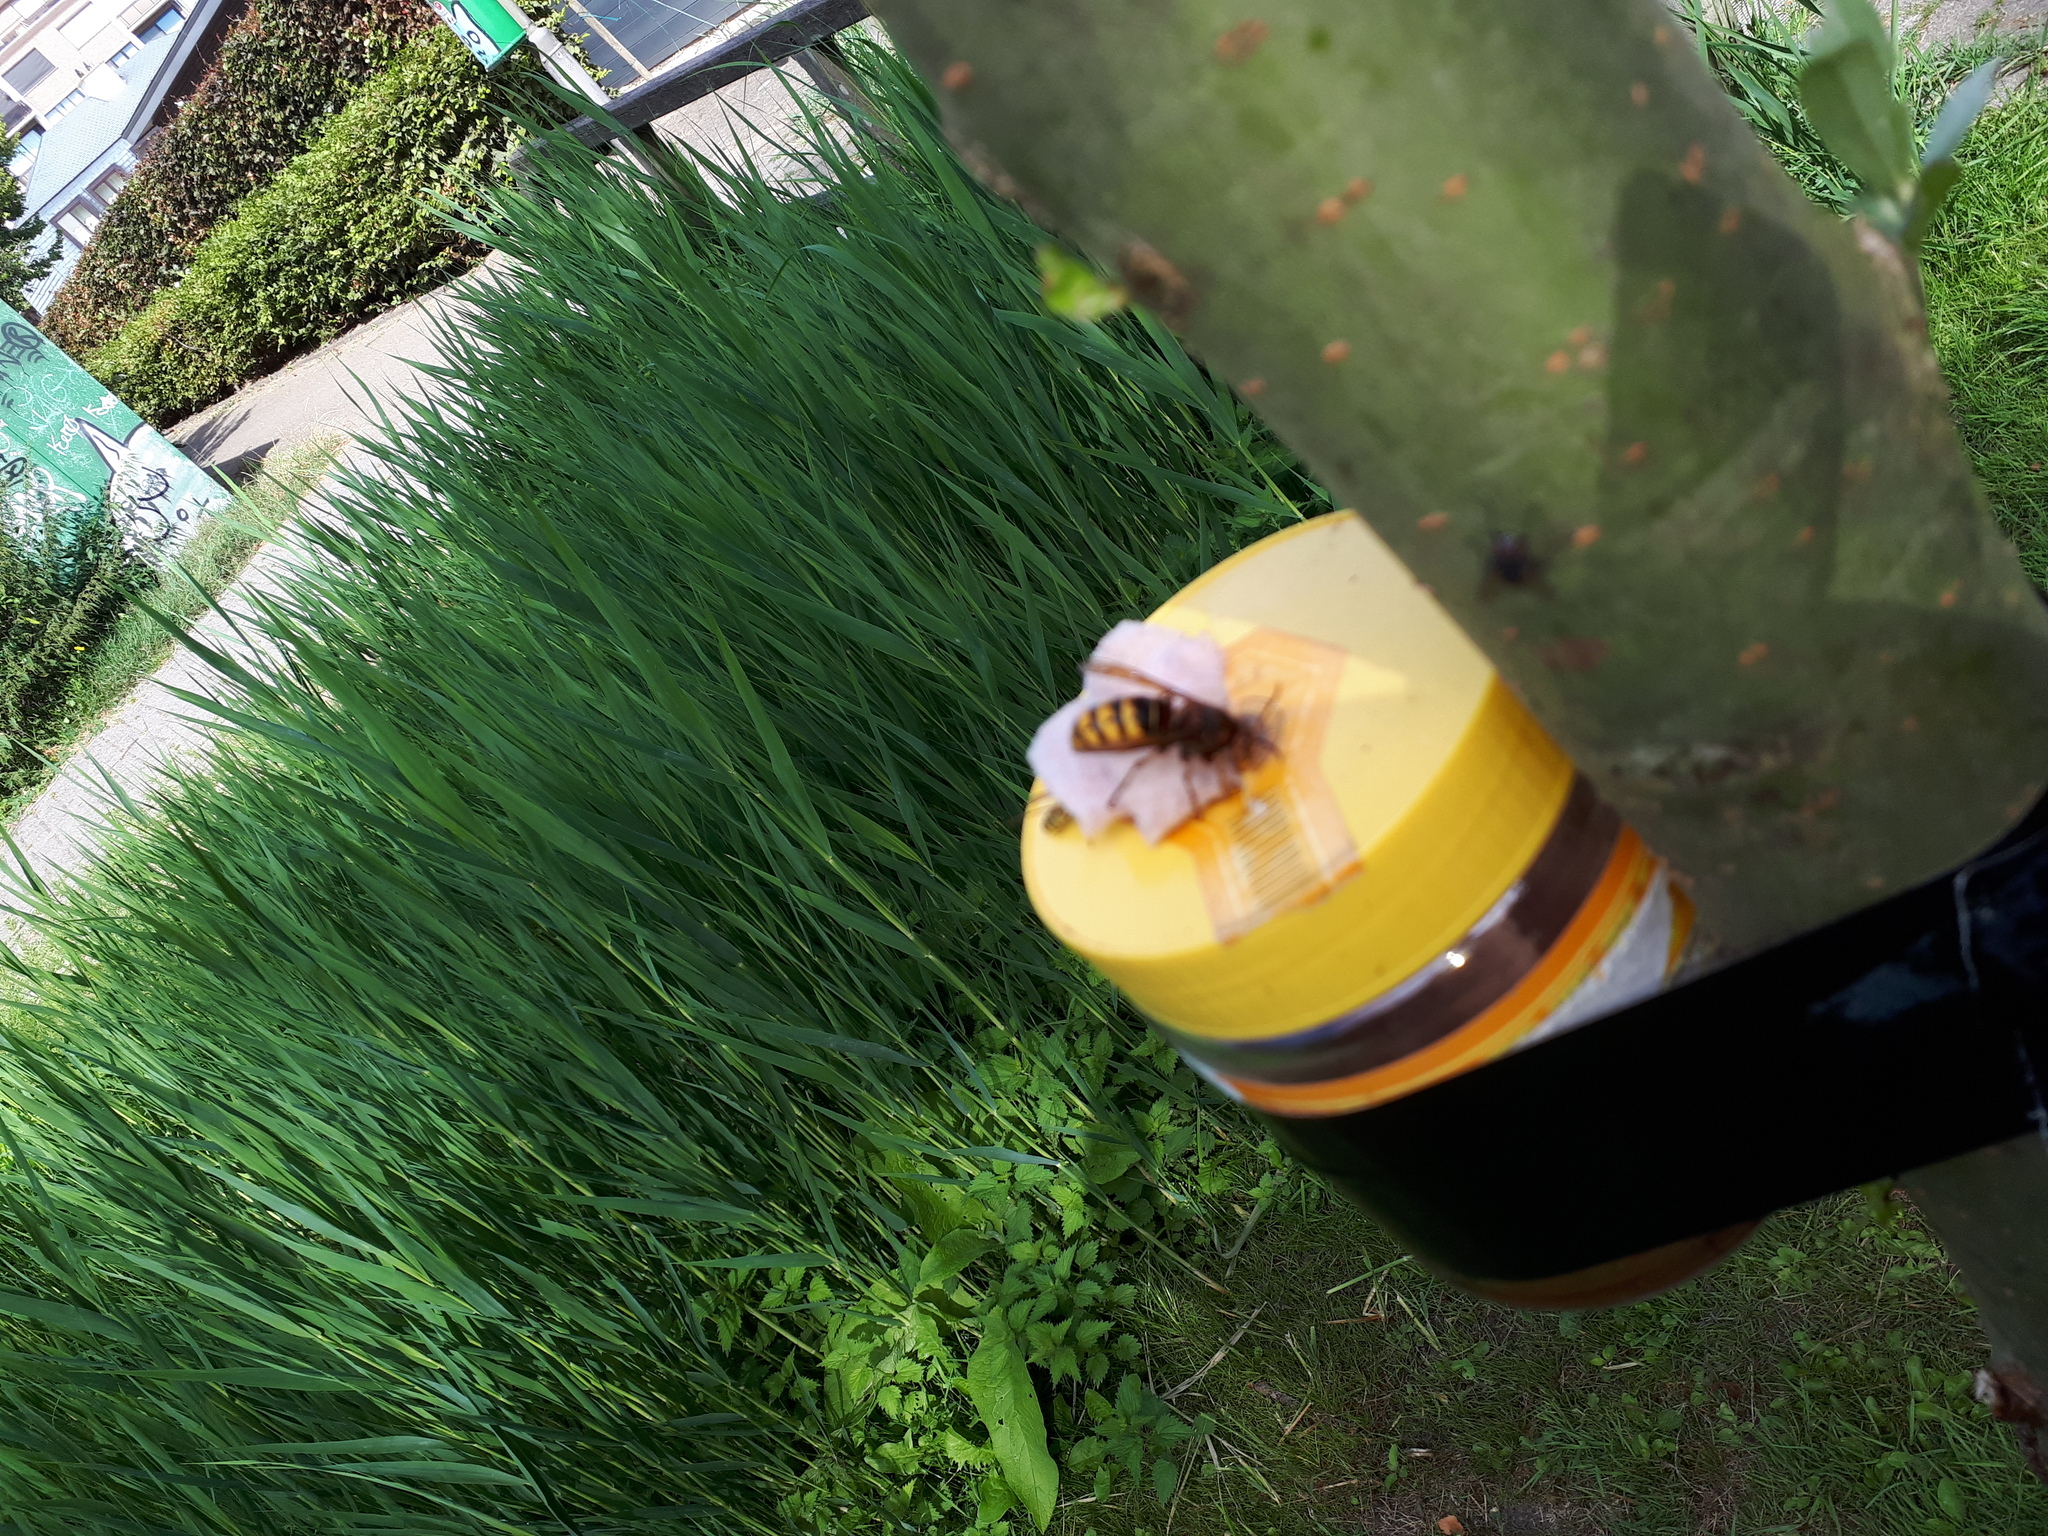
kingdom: Animalia
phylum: Arthropoda
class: Insecta
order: Hymenoptera
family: Vespidae
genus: Vespa
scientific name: Vespa crabro
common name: Hornet
